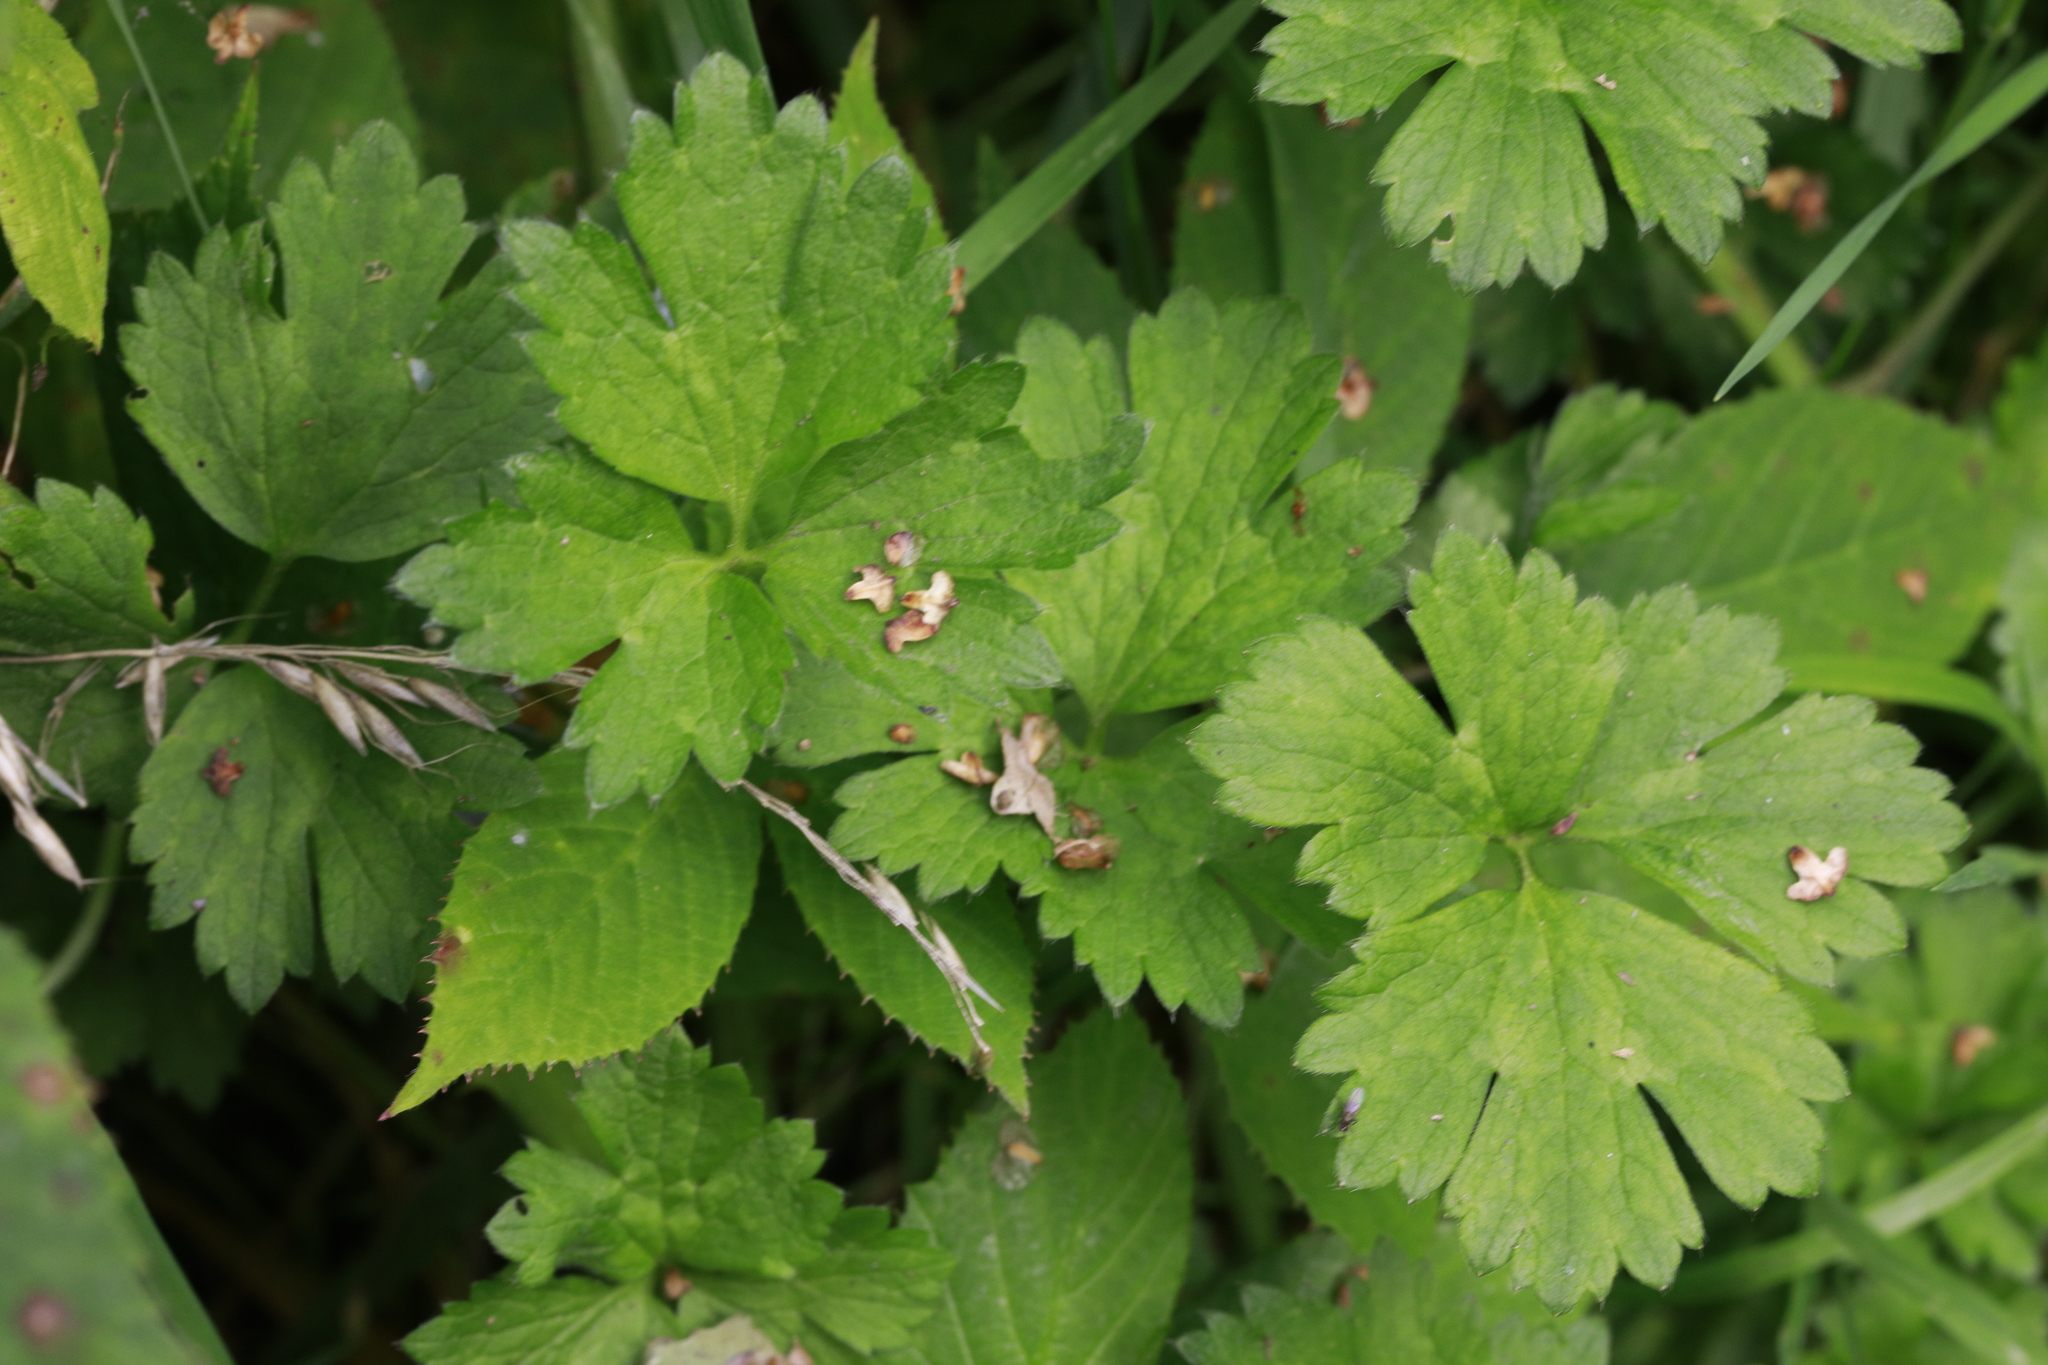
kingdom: Plantae
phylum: Tracheophyta
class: Magnoliopsida
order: Ranunculales
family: Ranunculaceae
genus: Ranunculus
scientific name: Ranunculus repens
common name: Creeping buttercup
